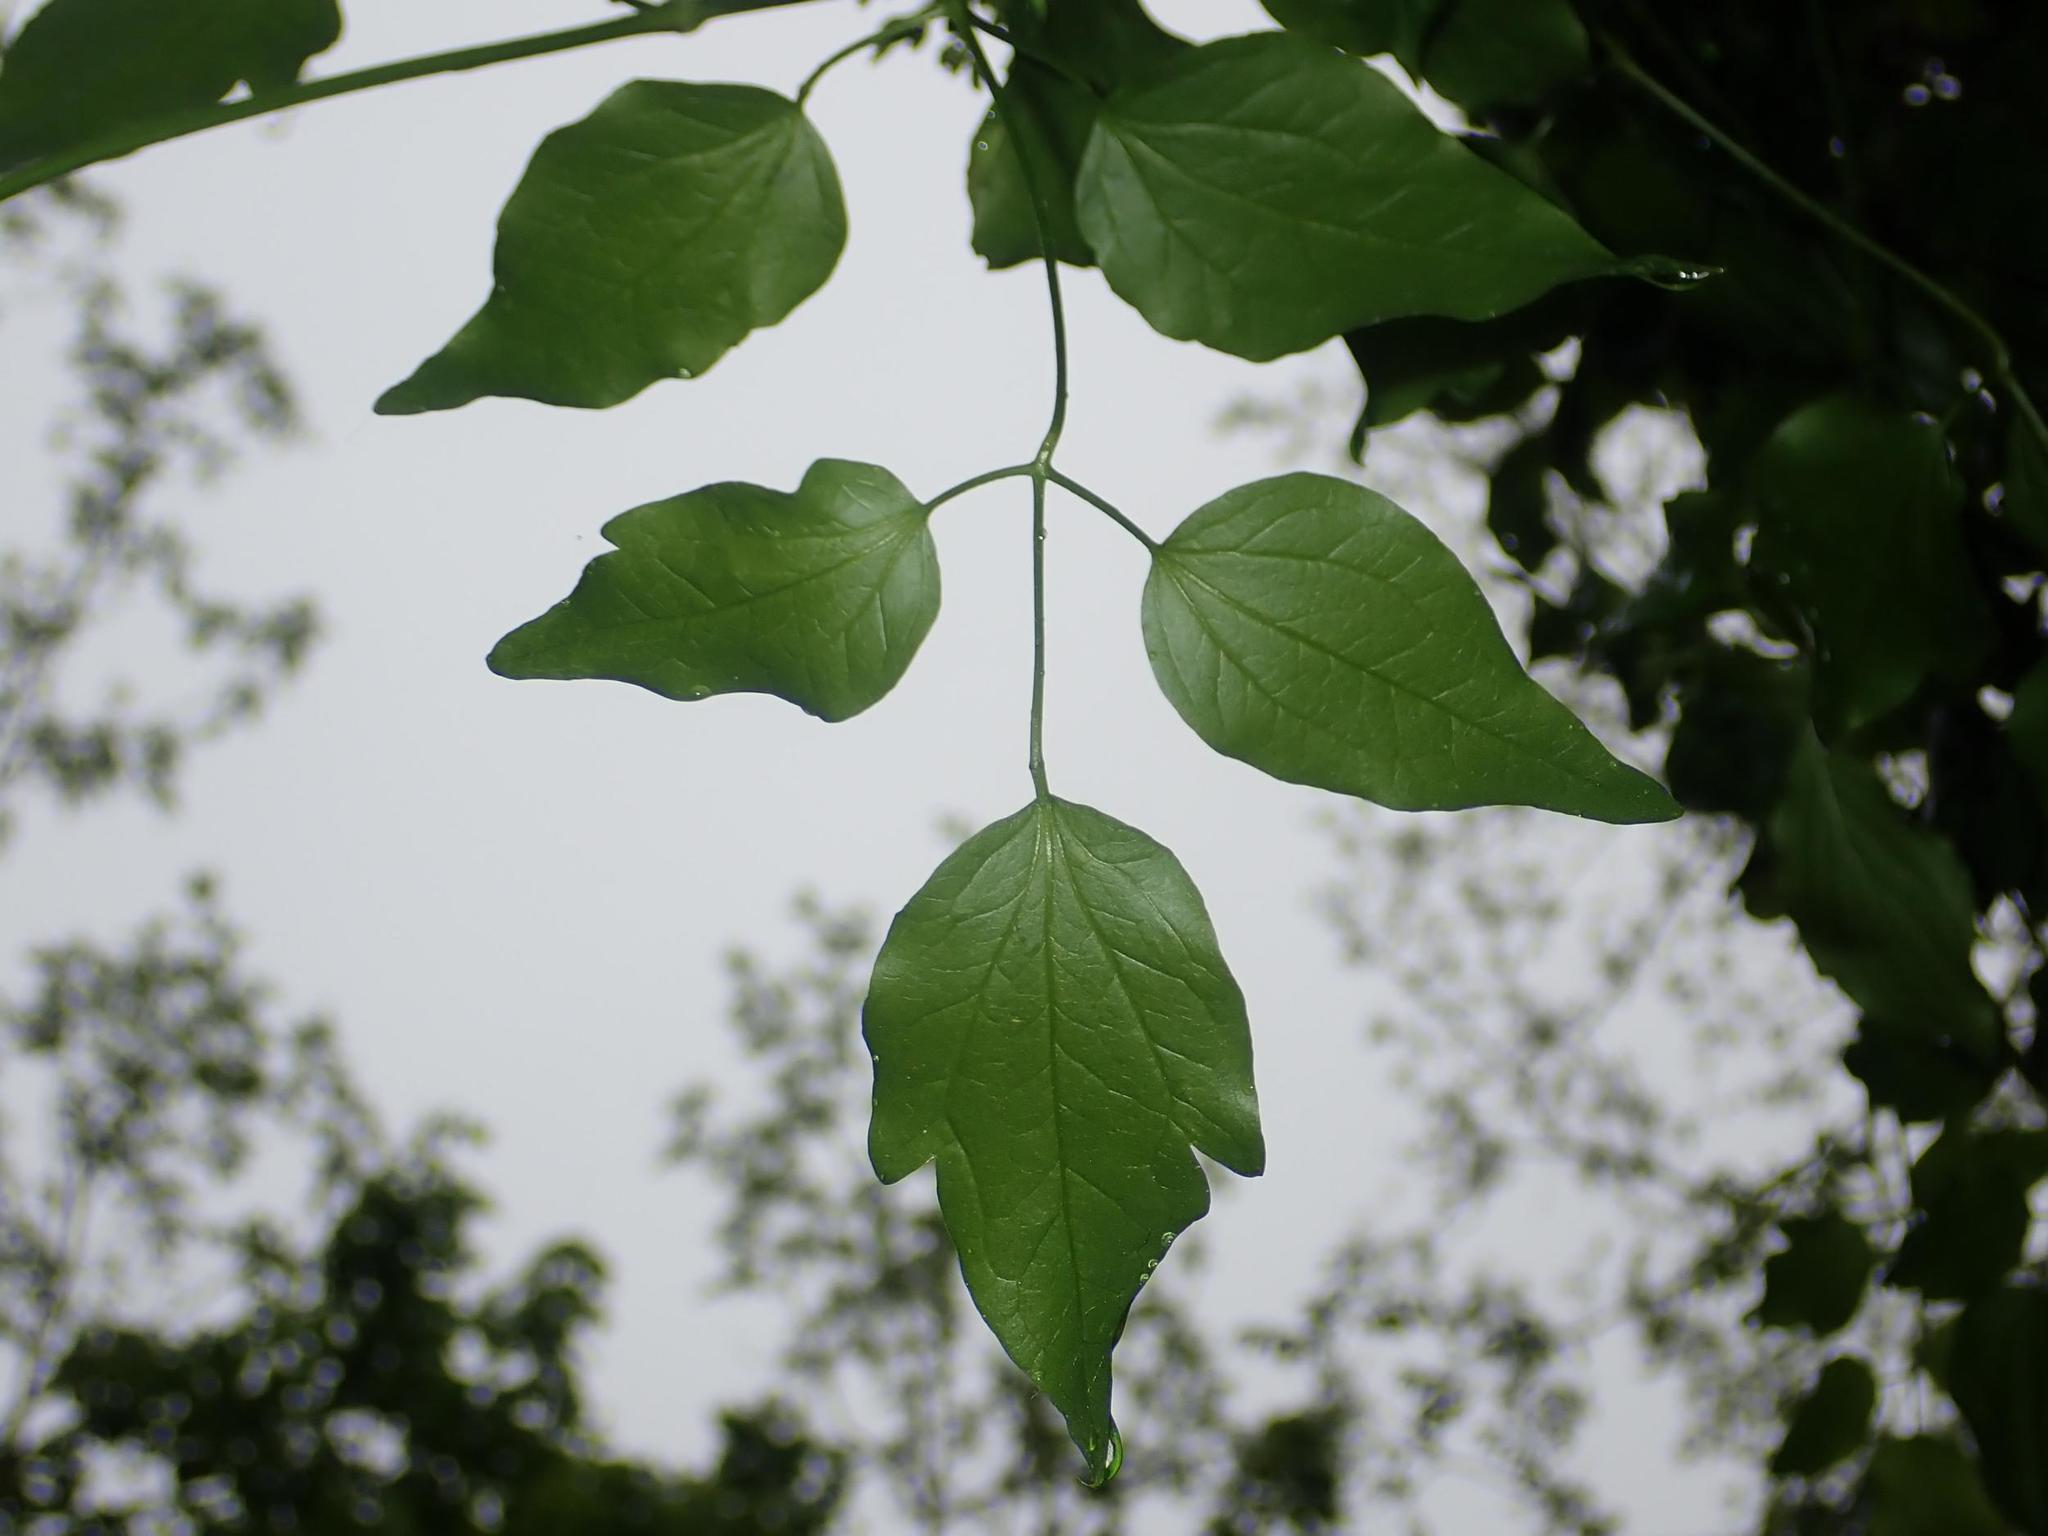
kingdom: Plantae
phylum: Tracheophyta
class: Magnoliopsida
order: Ranunculales
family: Ranunculaceae
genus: Clematis
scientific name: Clematis vitalba
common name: Evergreen clematis
